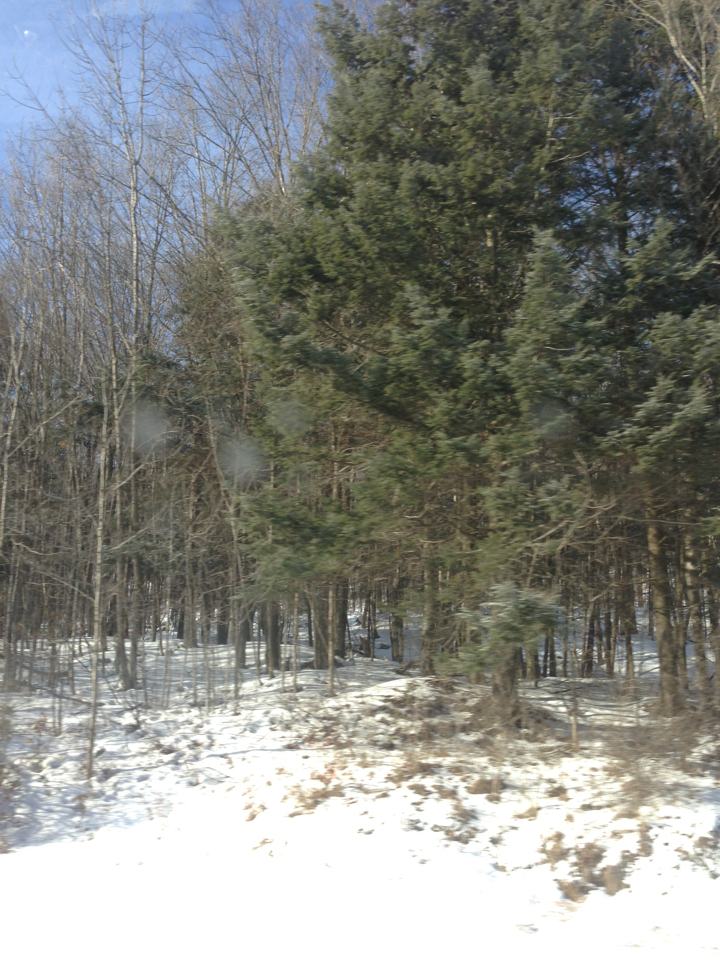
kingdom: Plantae
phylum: Tracheophyta
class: Pinopsida
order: Pinales
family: Pinaceae
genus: Tsuga
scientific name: Tsuga canadensis
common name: Eastern hemlock
